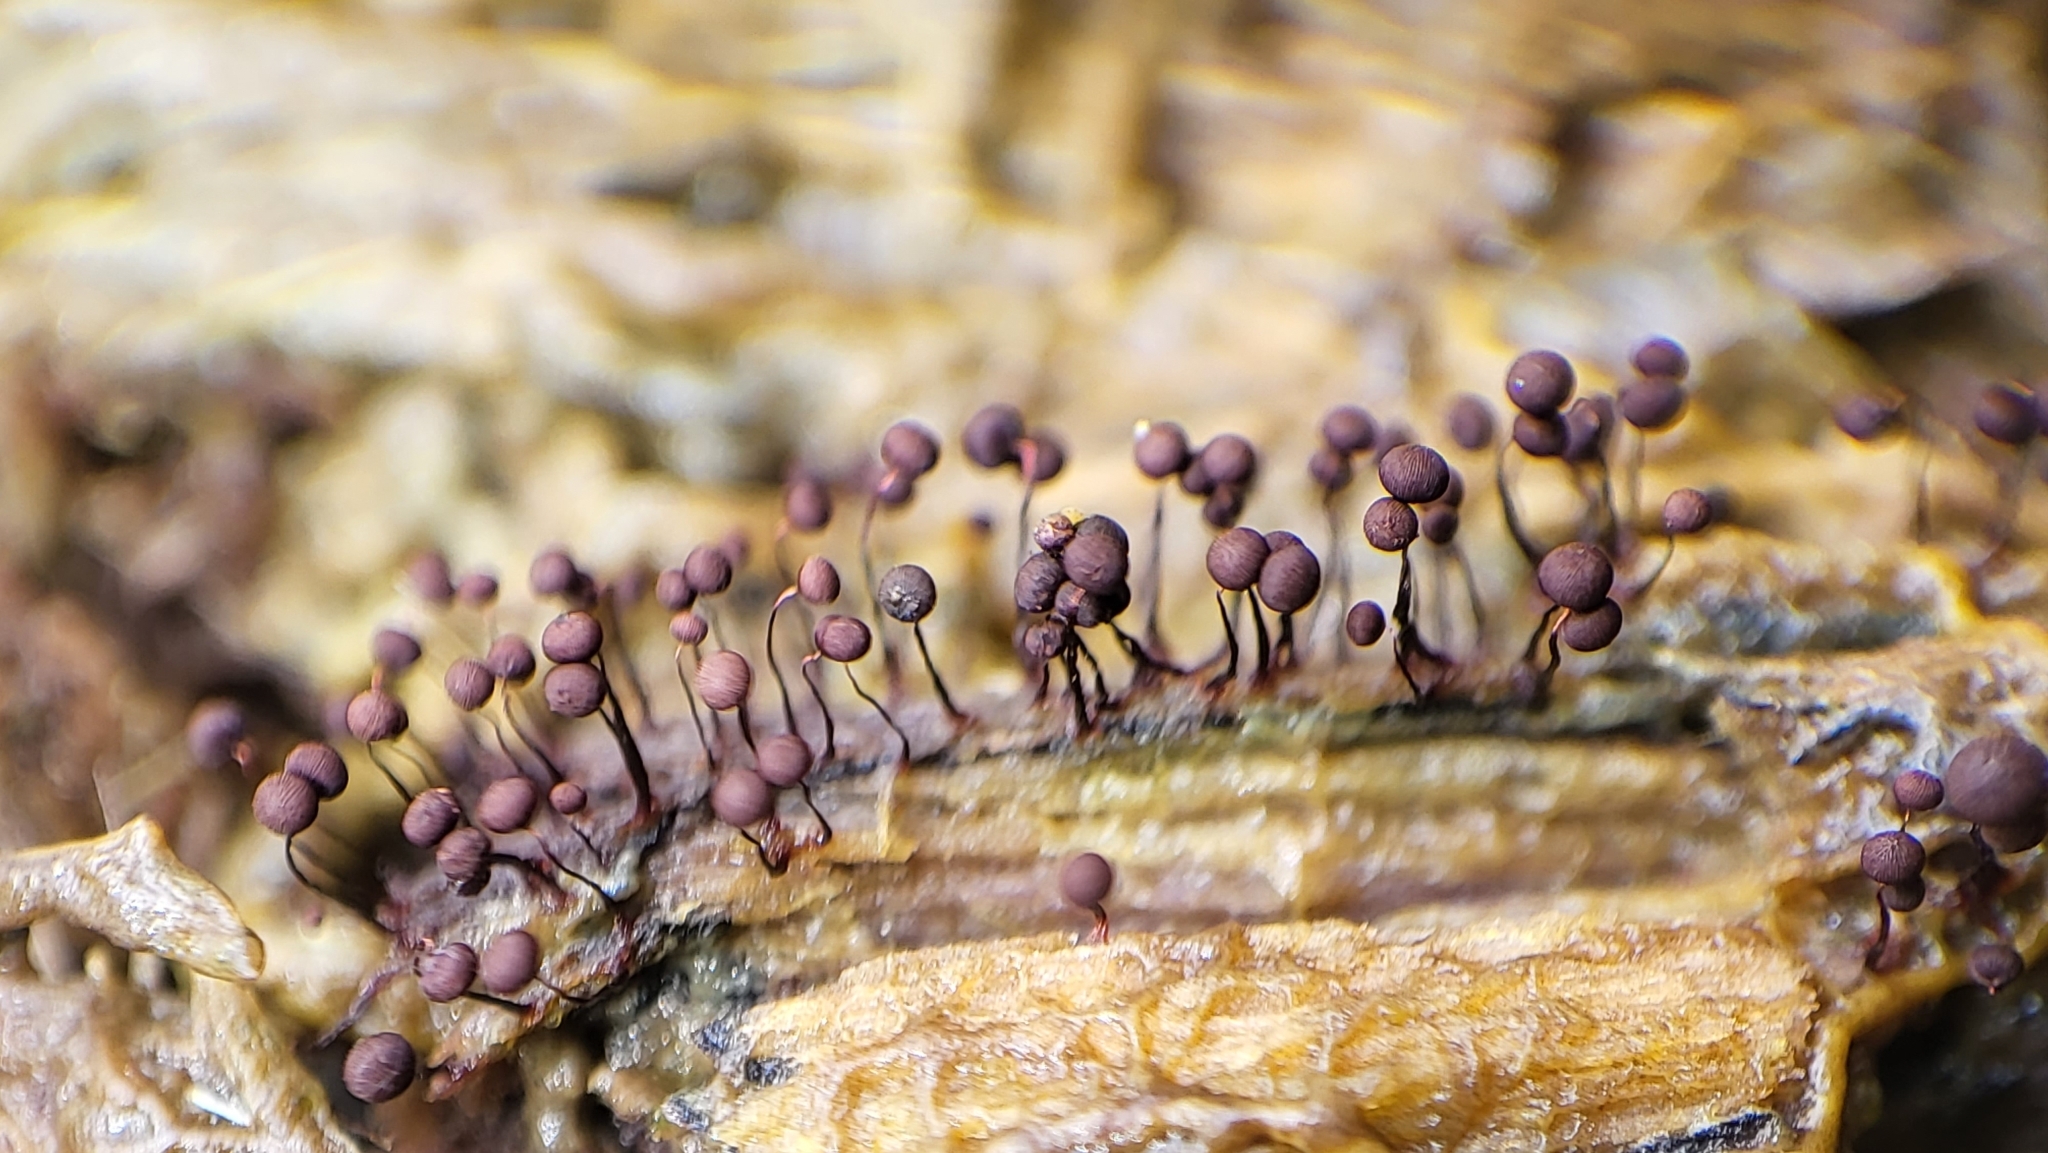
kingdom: Protozoa
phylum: Mycetozoa
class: Myxomycetes
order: Cribrariales
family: Cribrariaceae
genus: Cribraria
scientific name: Cribraria cancellata
